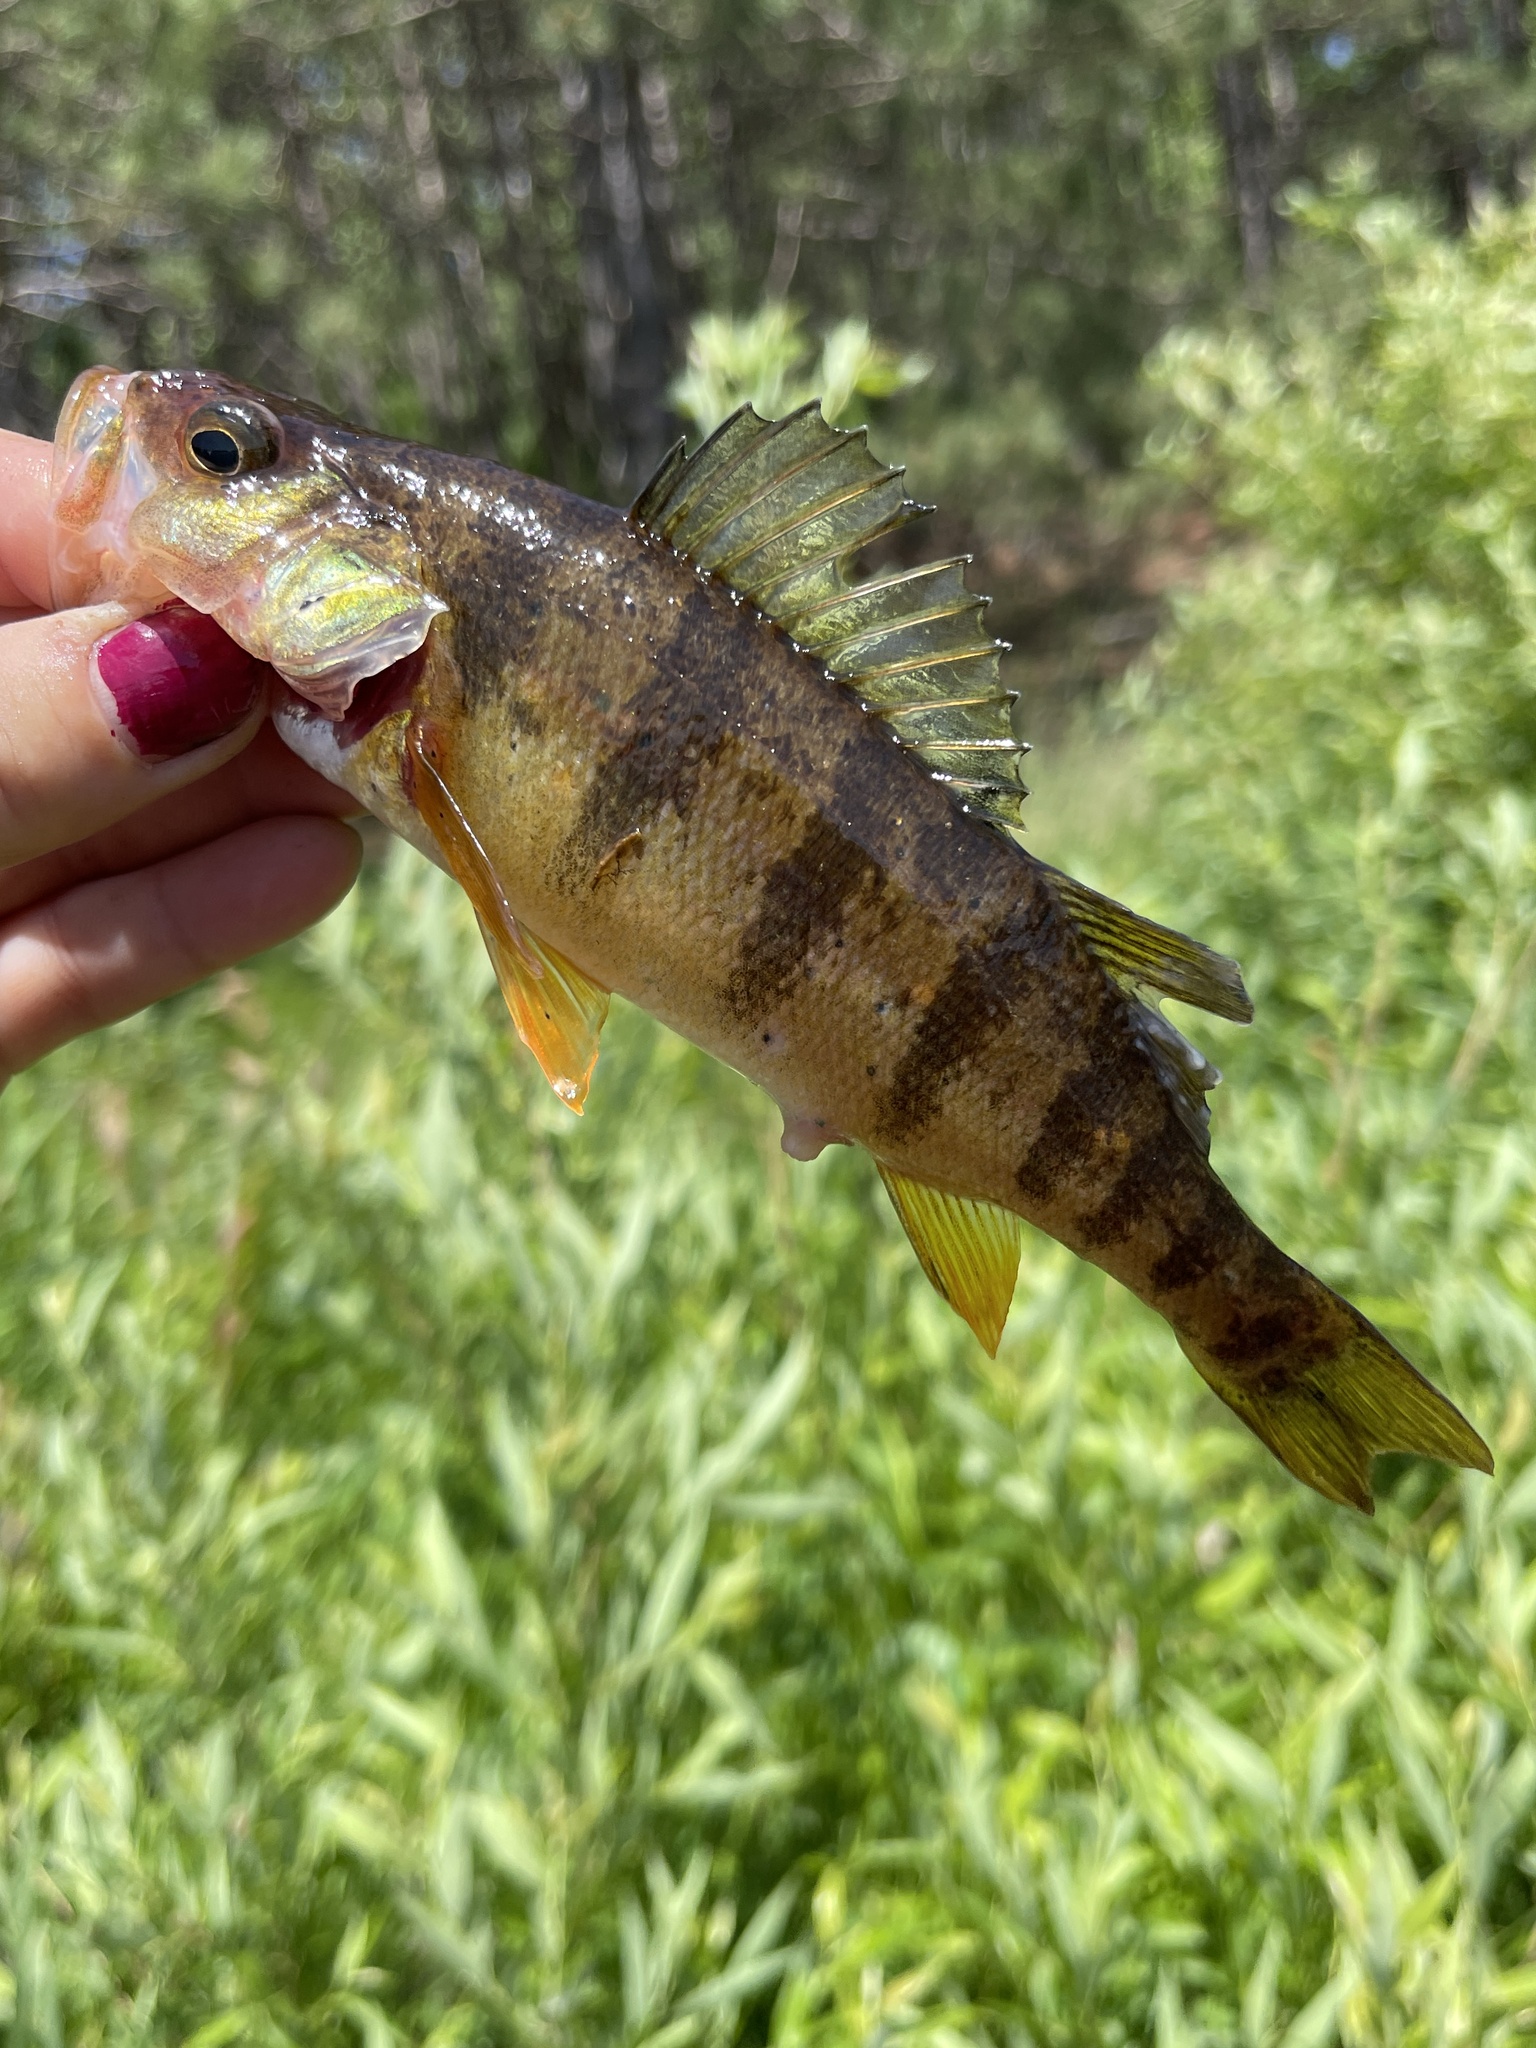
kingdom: Animalia
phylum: Chordata
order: Perciformes
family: Percidae
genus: Perca
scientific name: Perca flavescens
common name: Yellow perch
